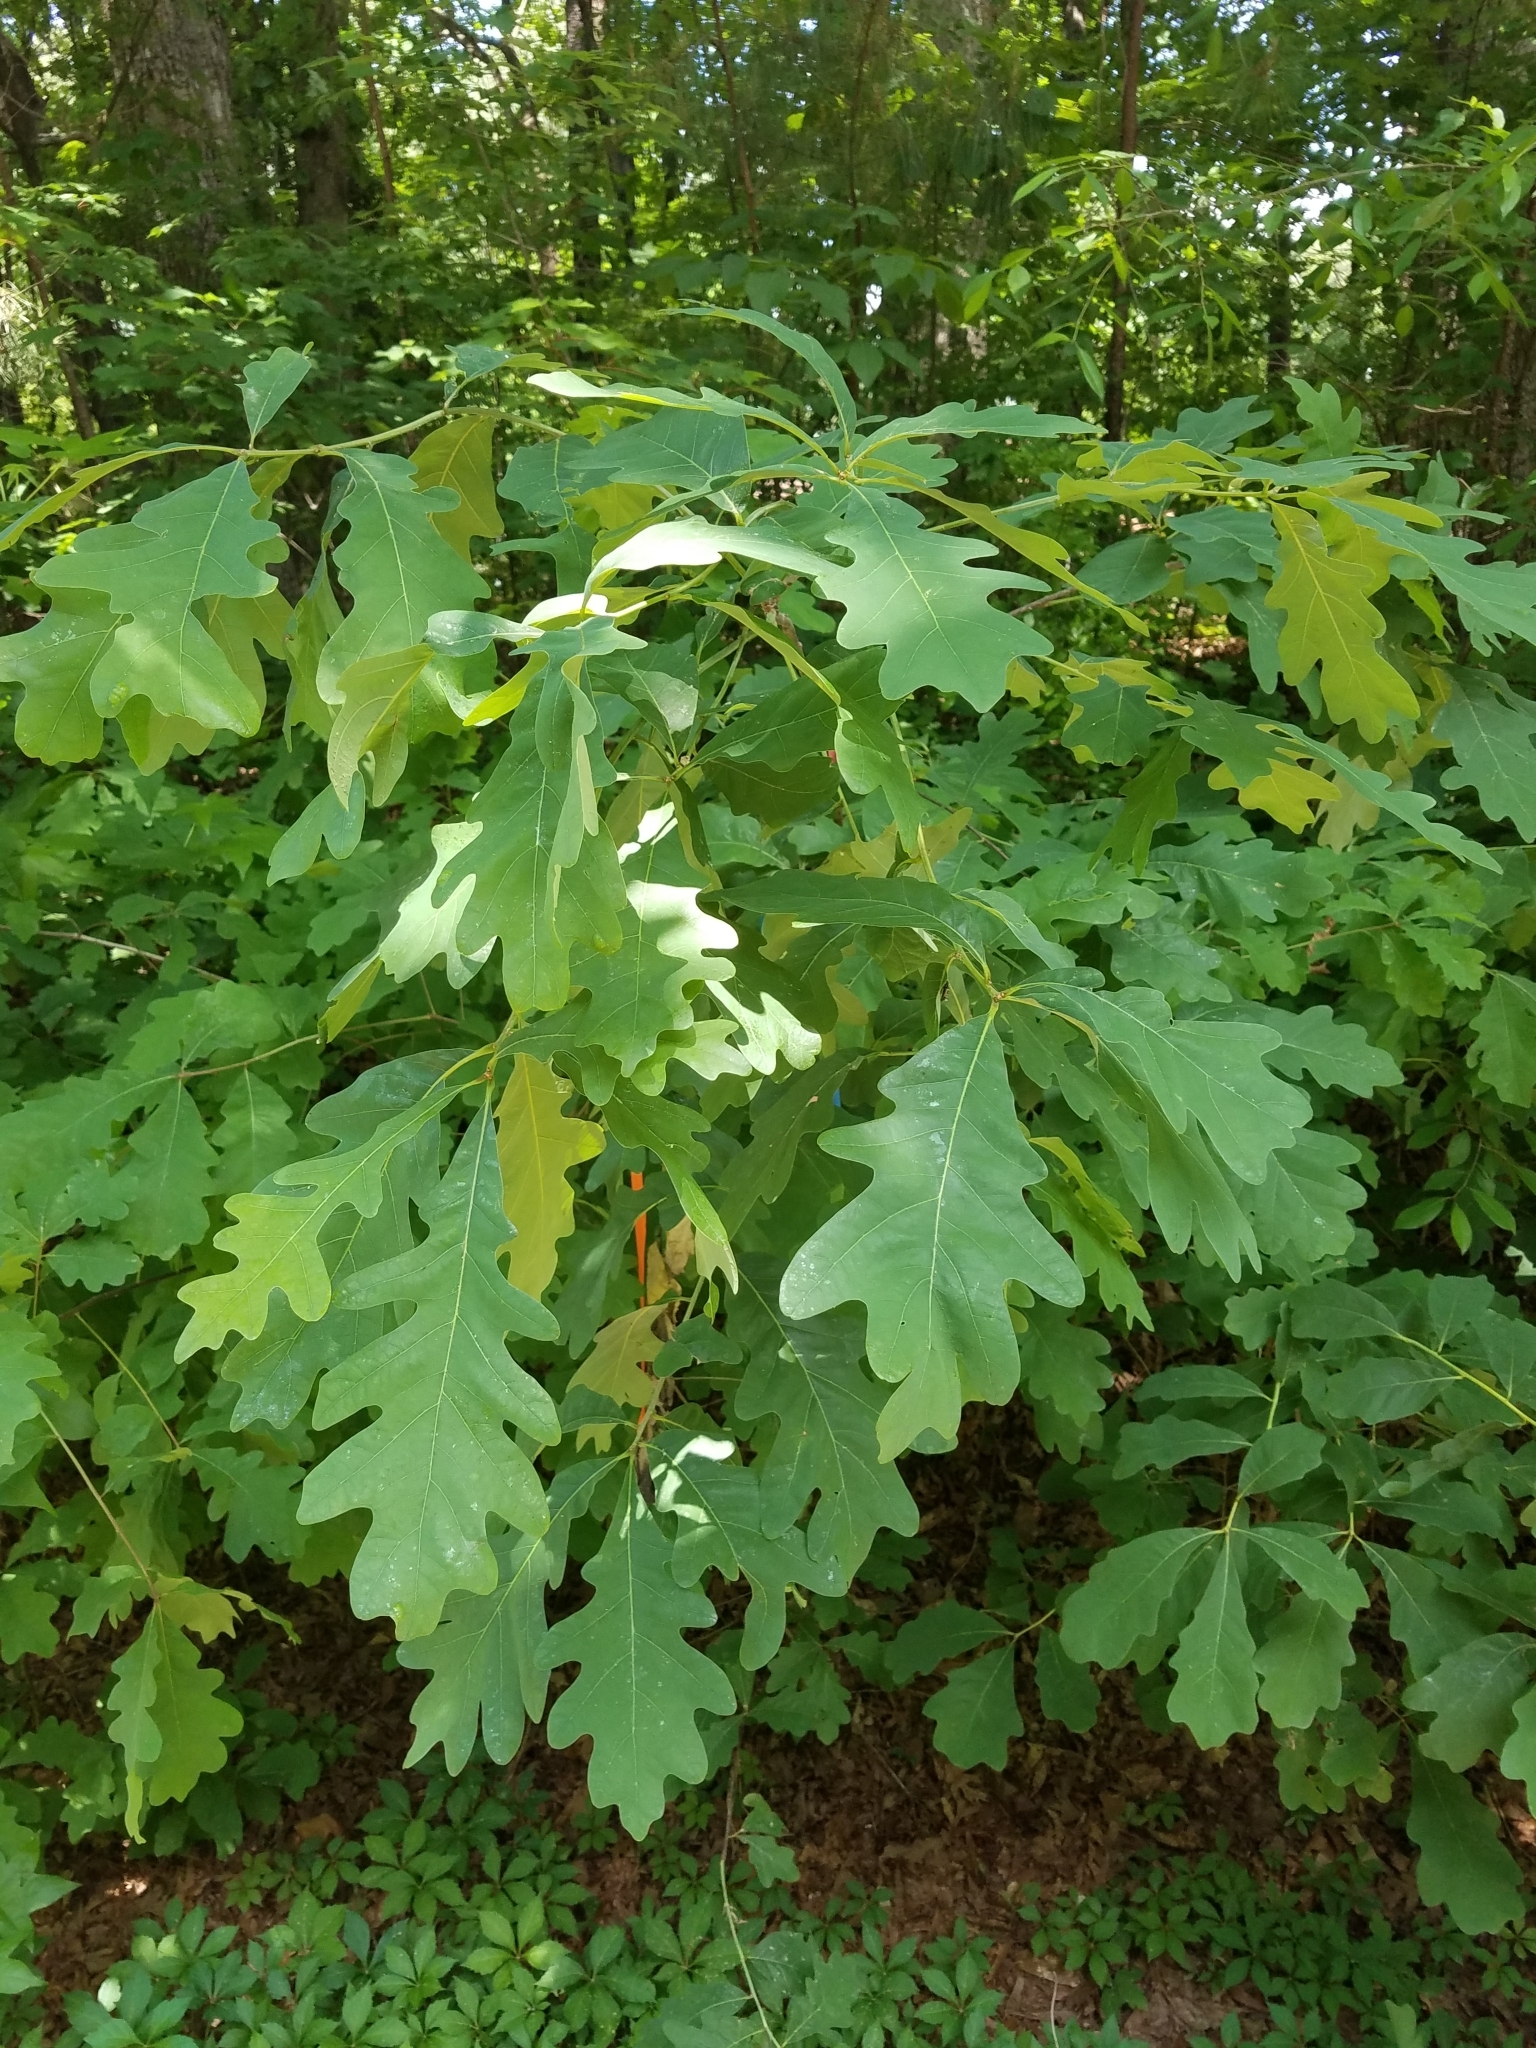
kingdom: Plantae
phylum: Tracheophyta
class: Magnoliopsida
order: Fagales
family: Fagaceae
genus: Quercus
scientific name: Quercus alba
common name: White oak
